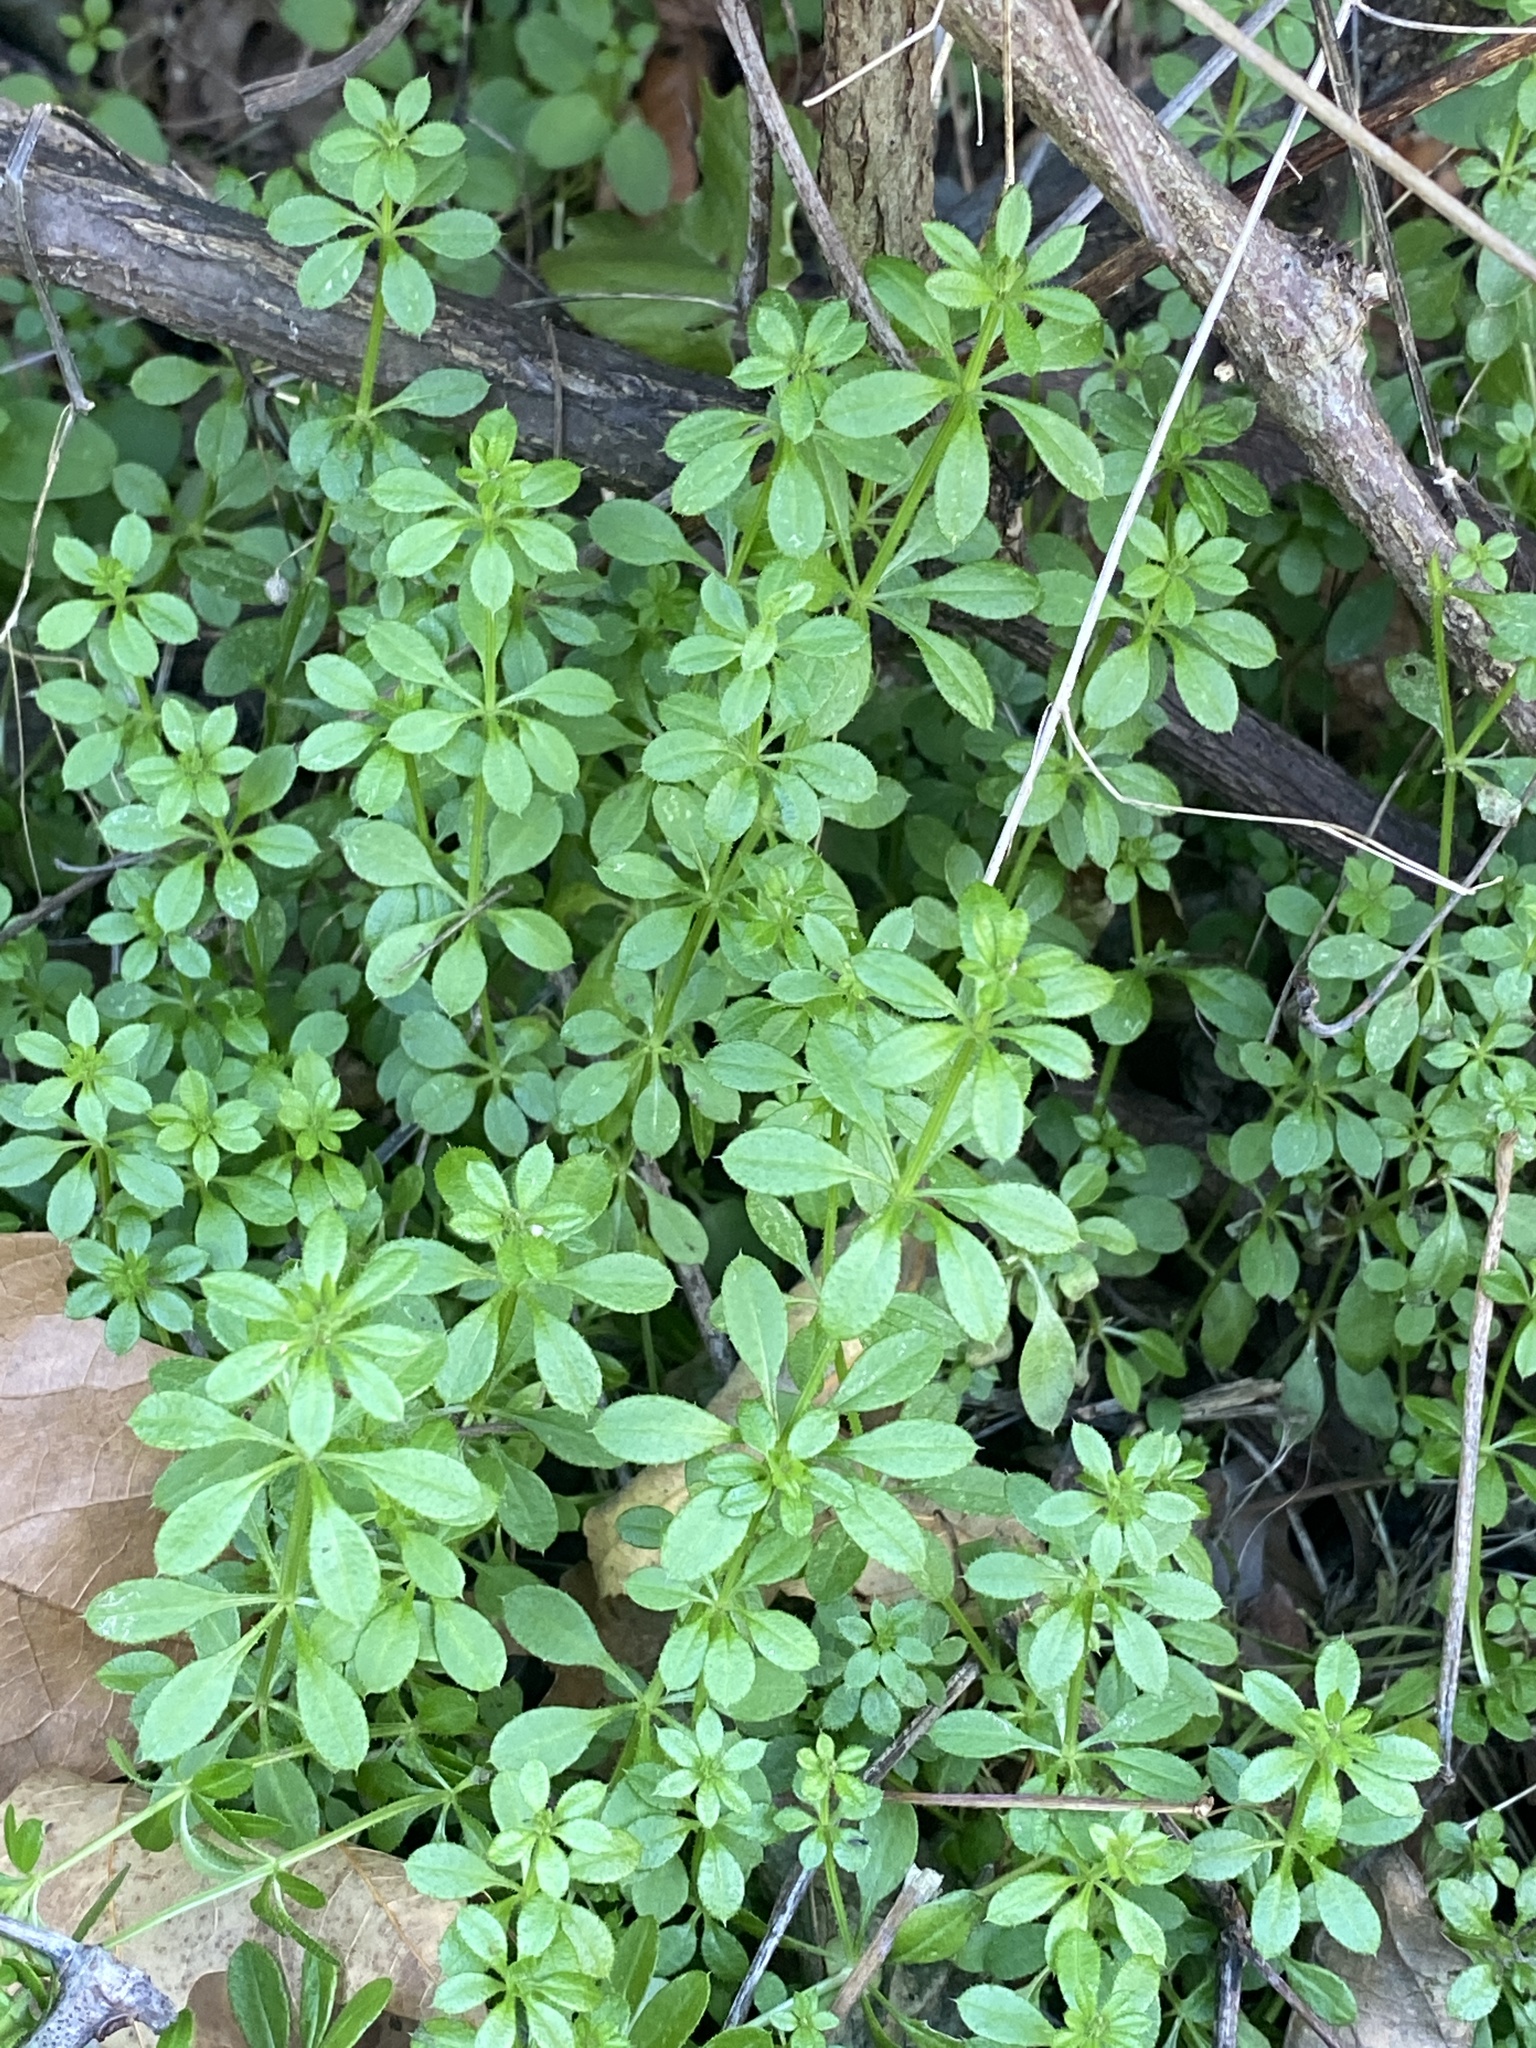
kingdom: Plantae
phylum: Tracheophyta
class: Magnoliopsida
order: Gentianales
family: Rubiaceae
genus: Galium
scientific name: Galium aparine
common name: Cleavers
